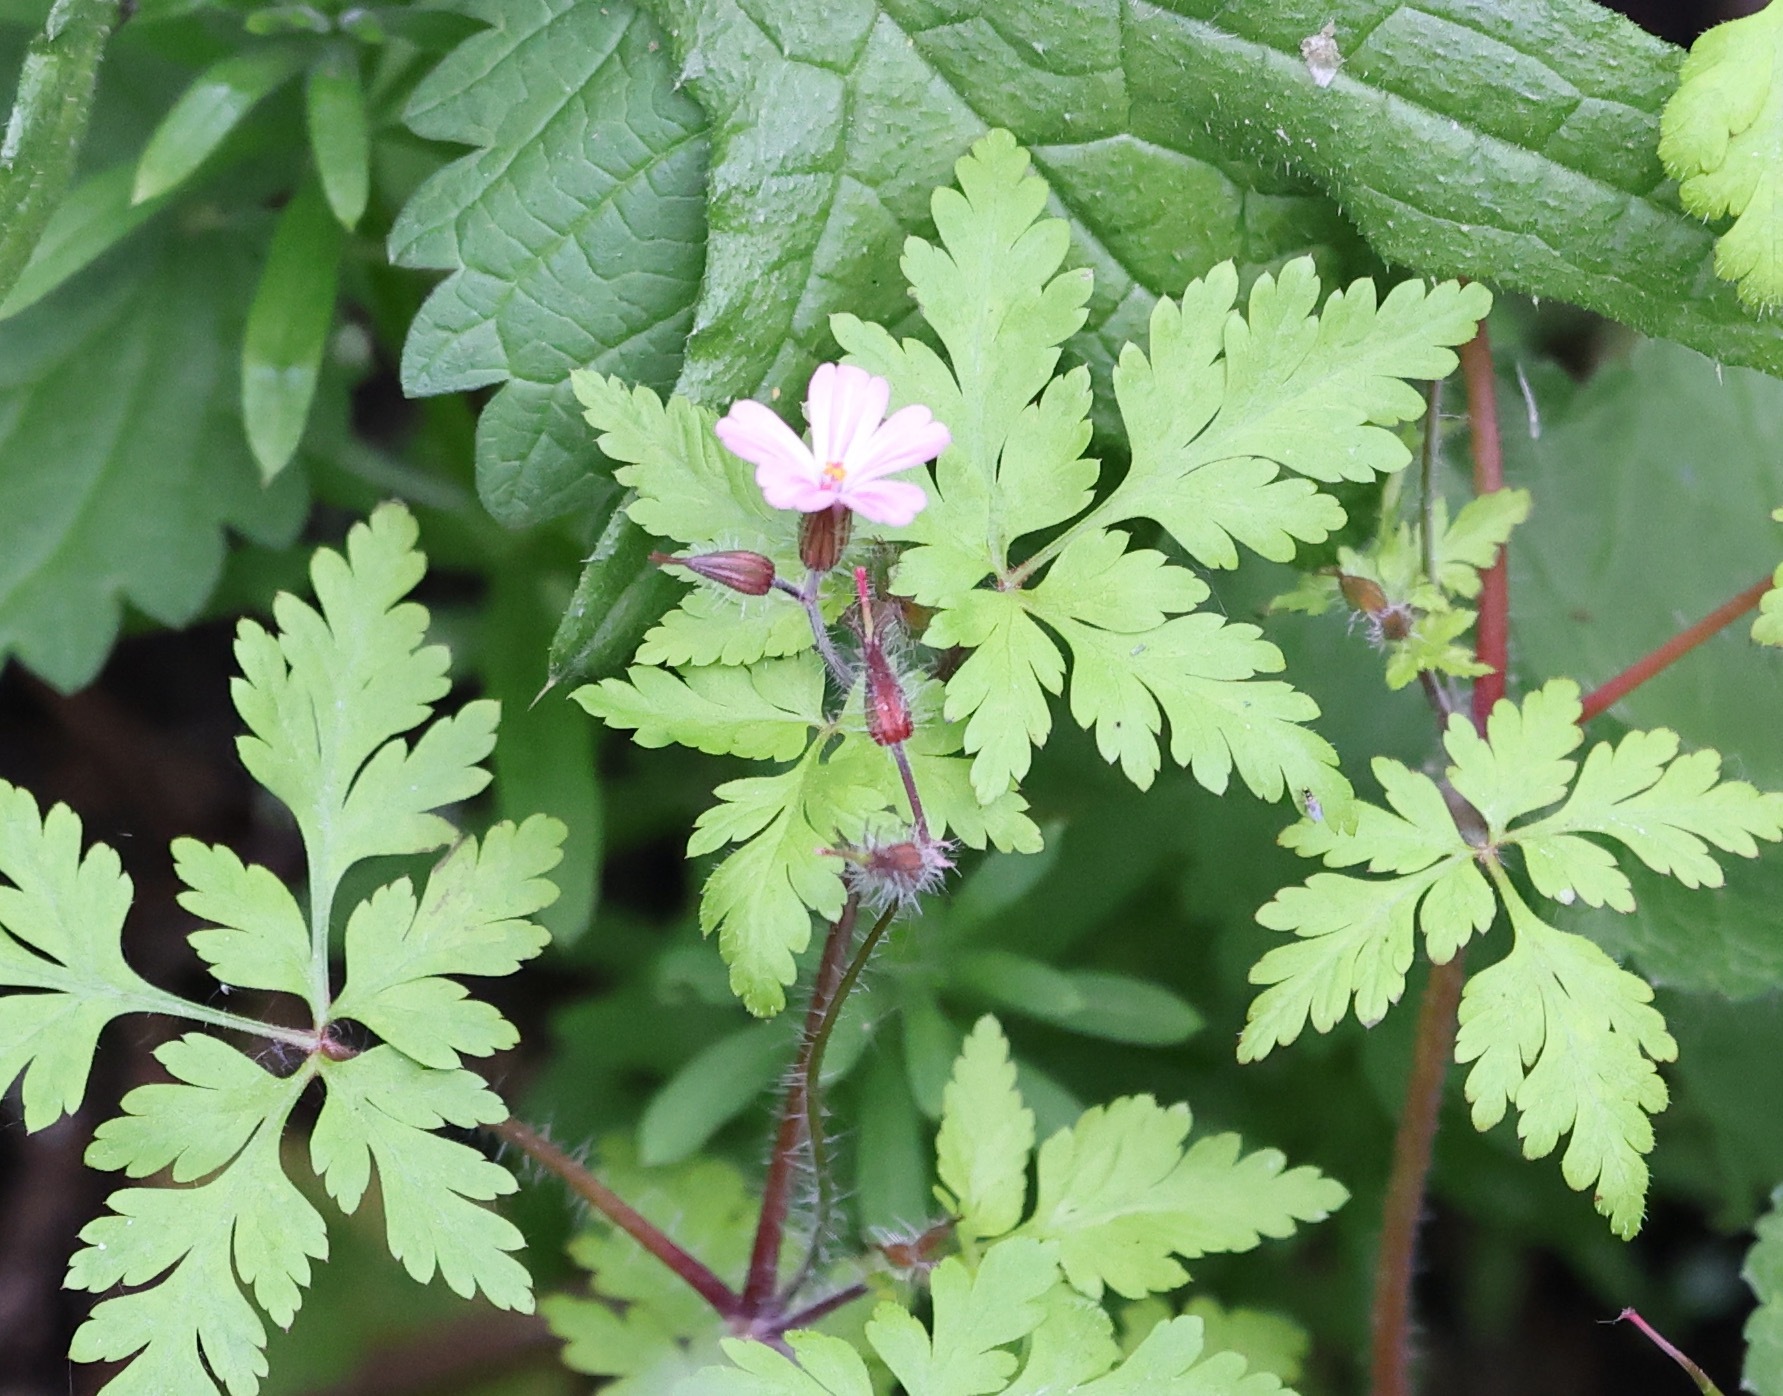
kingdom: Plantae
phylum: Tracheophyta
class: Magnoliopsida
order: Geraniales
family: Geraniaceae
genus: Geranium
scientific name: Geranium robertianum
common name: Herb-robert
